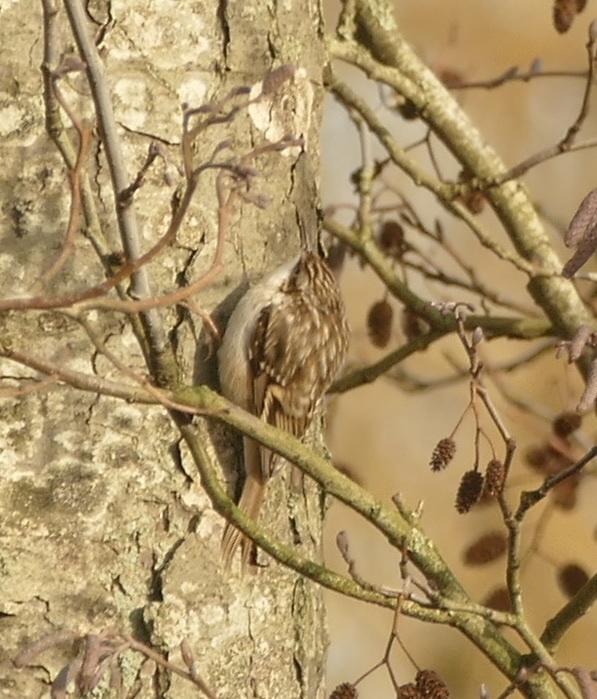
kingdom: Animalia
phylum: Chordata
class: Aves
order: Passeriformes
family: Certhiidae
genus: Certhia
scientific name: Certhia brachydactyla
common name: Short-toed treecreeper
